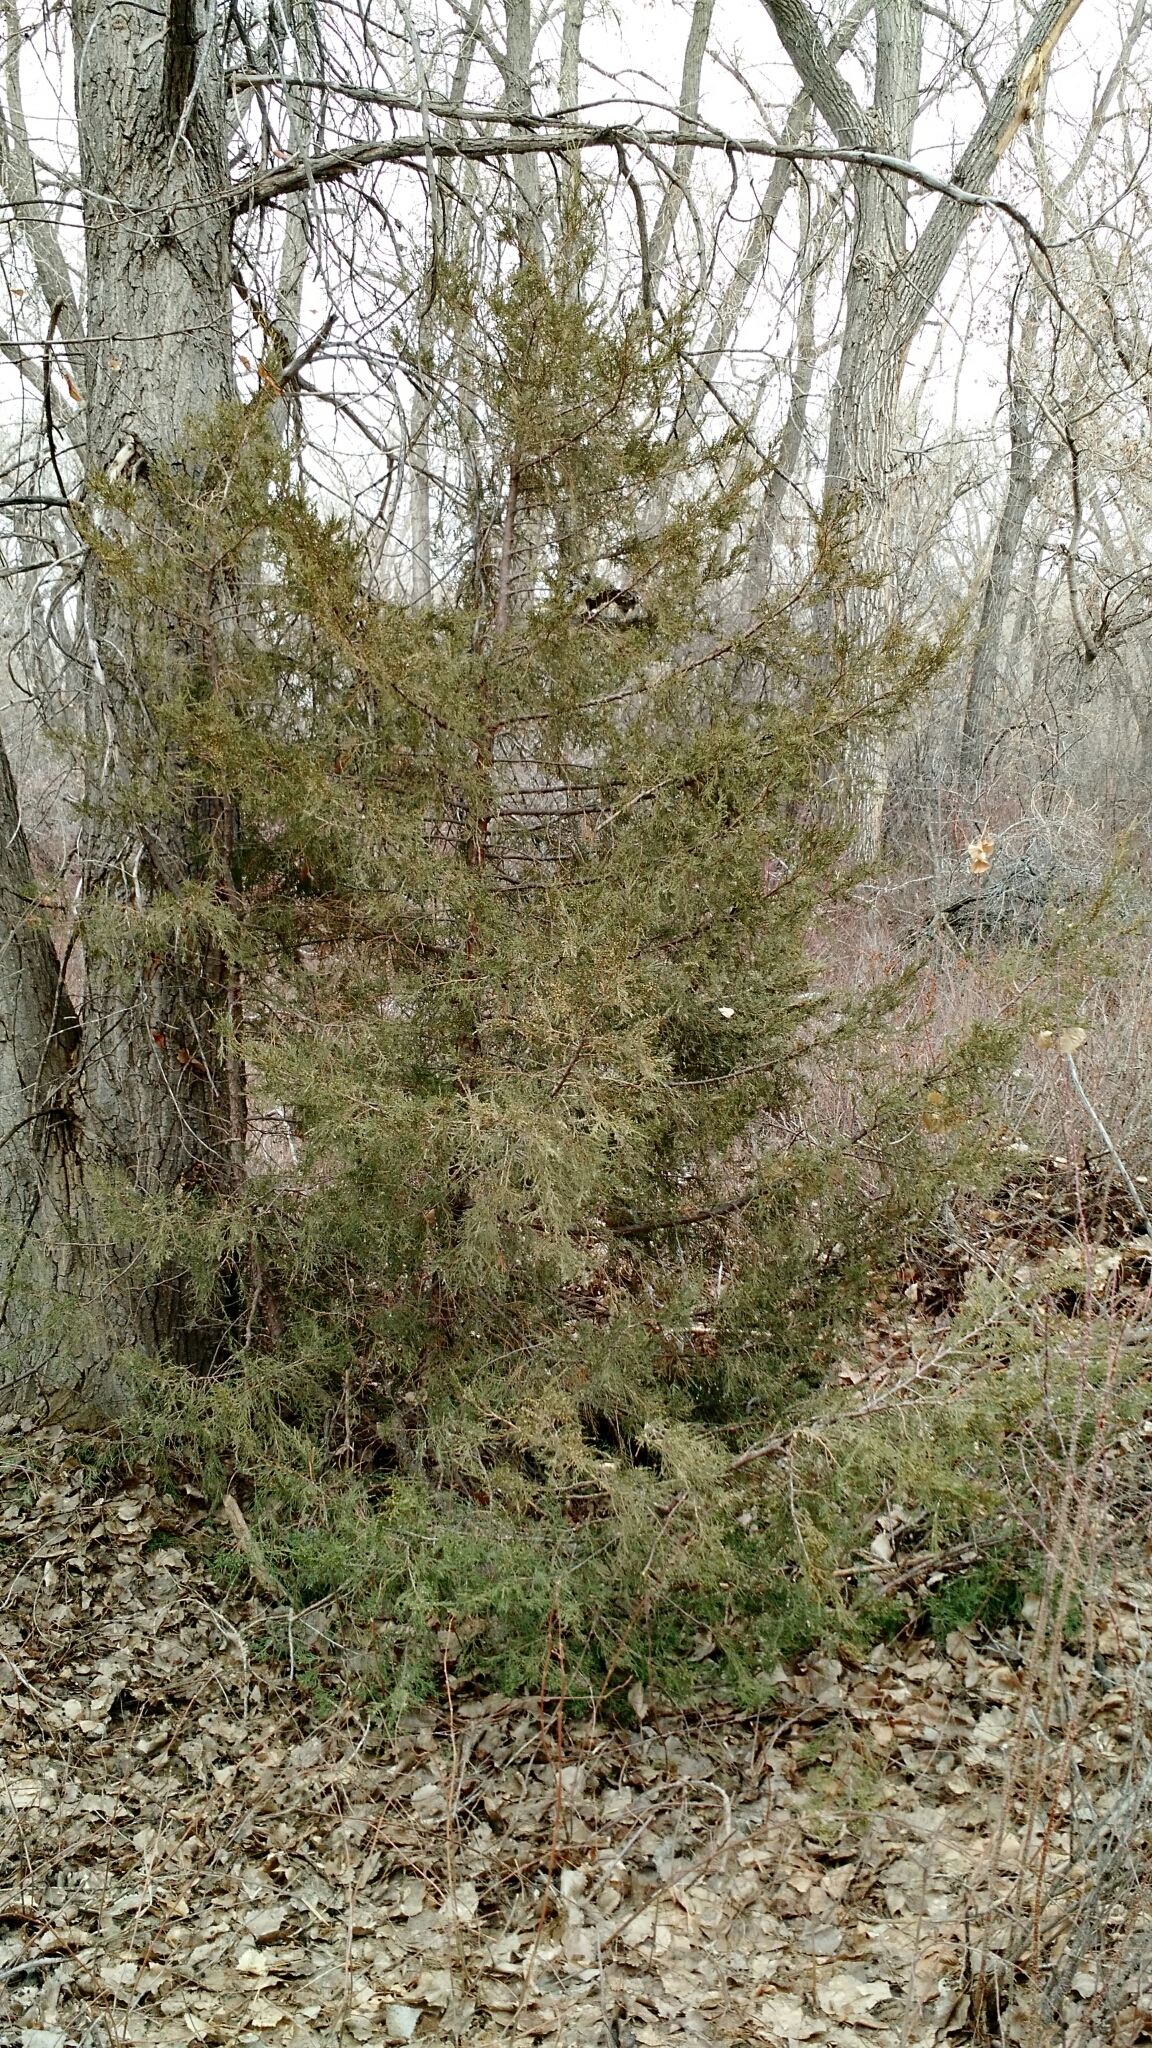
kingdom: Plantae
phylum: Tracheophyta
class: Pinopsida
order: Pinales
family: Cupressaceae
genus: Juniperus
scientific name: Juniperus scopulorum
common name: Rocky mountain juniper
